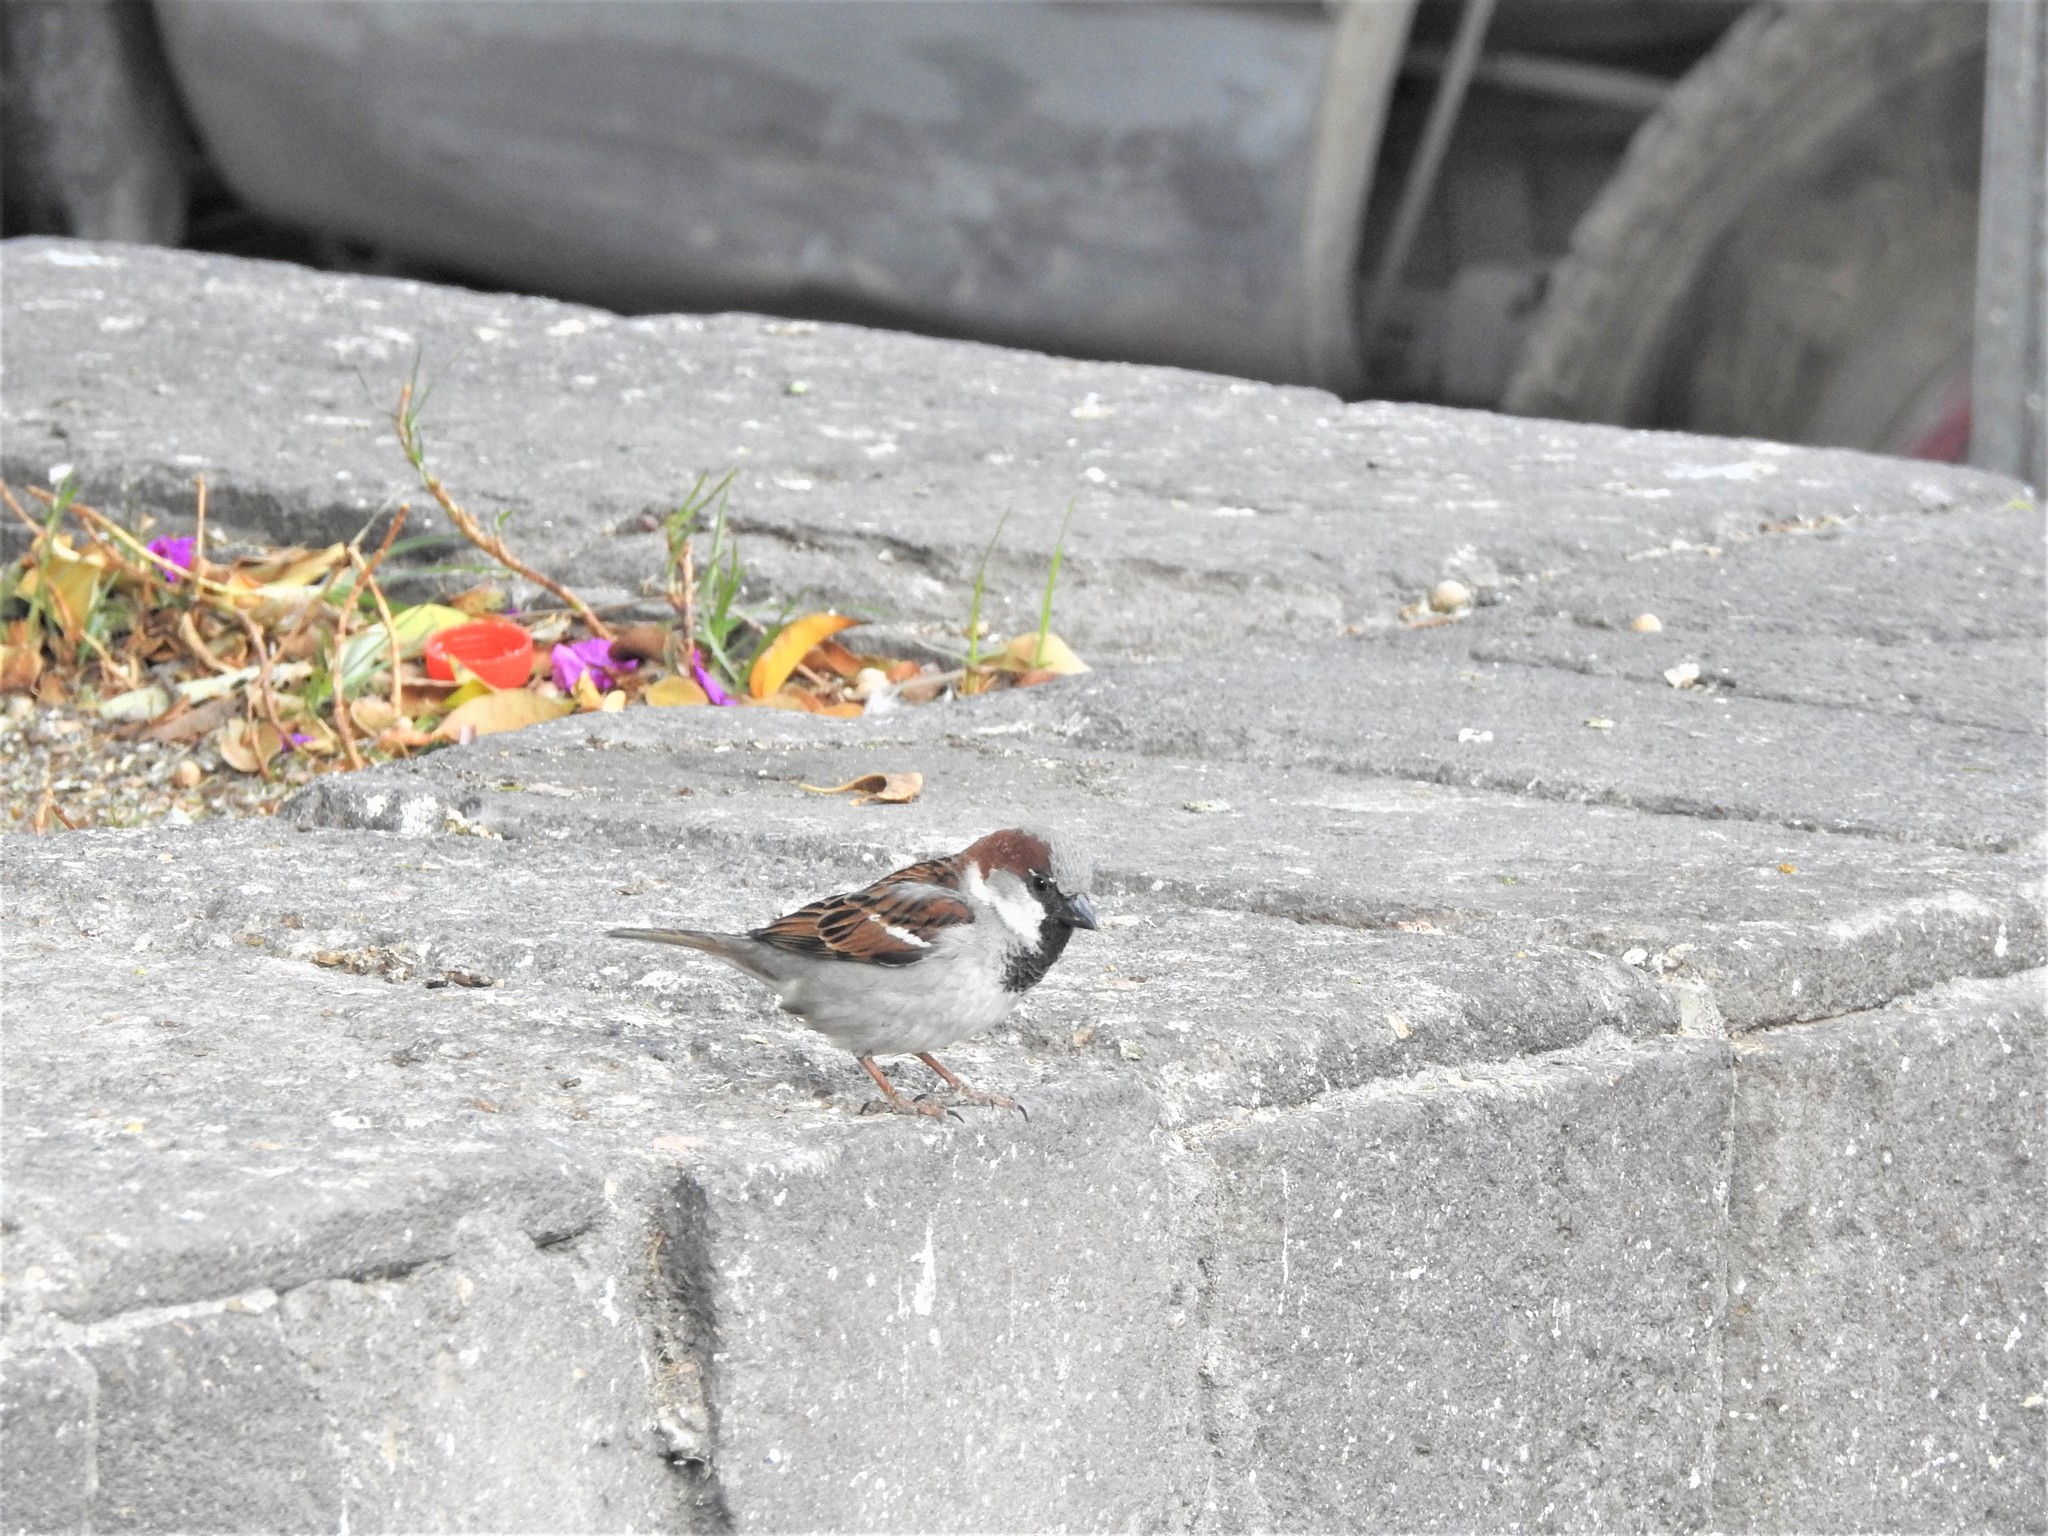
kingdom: Animalia
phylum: Chordata
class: Aves
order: Passeriformes
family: Passeridae
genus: Passer
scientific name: Passer domesticus
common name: House sparrow
